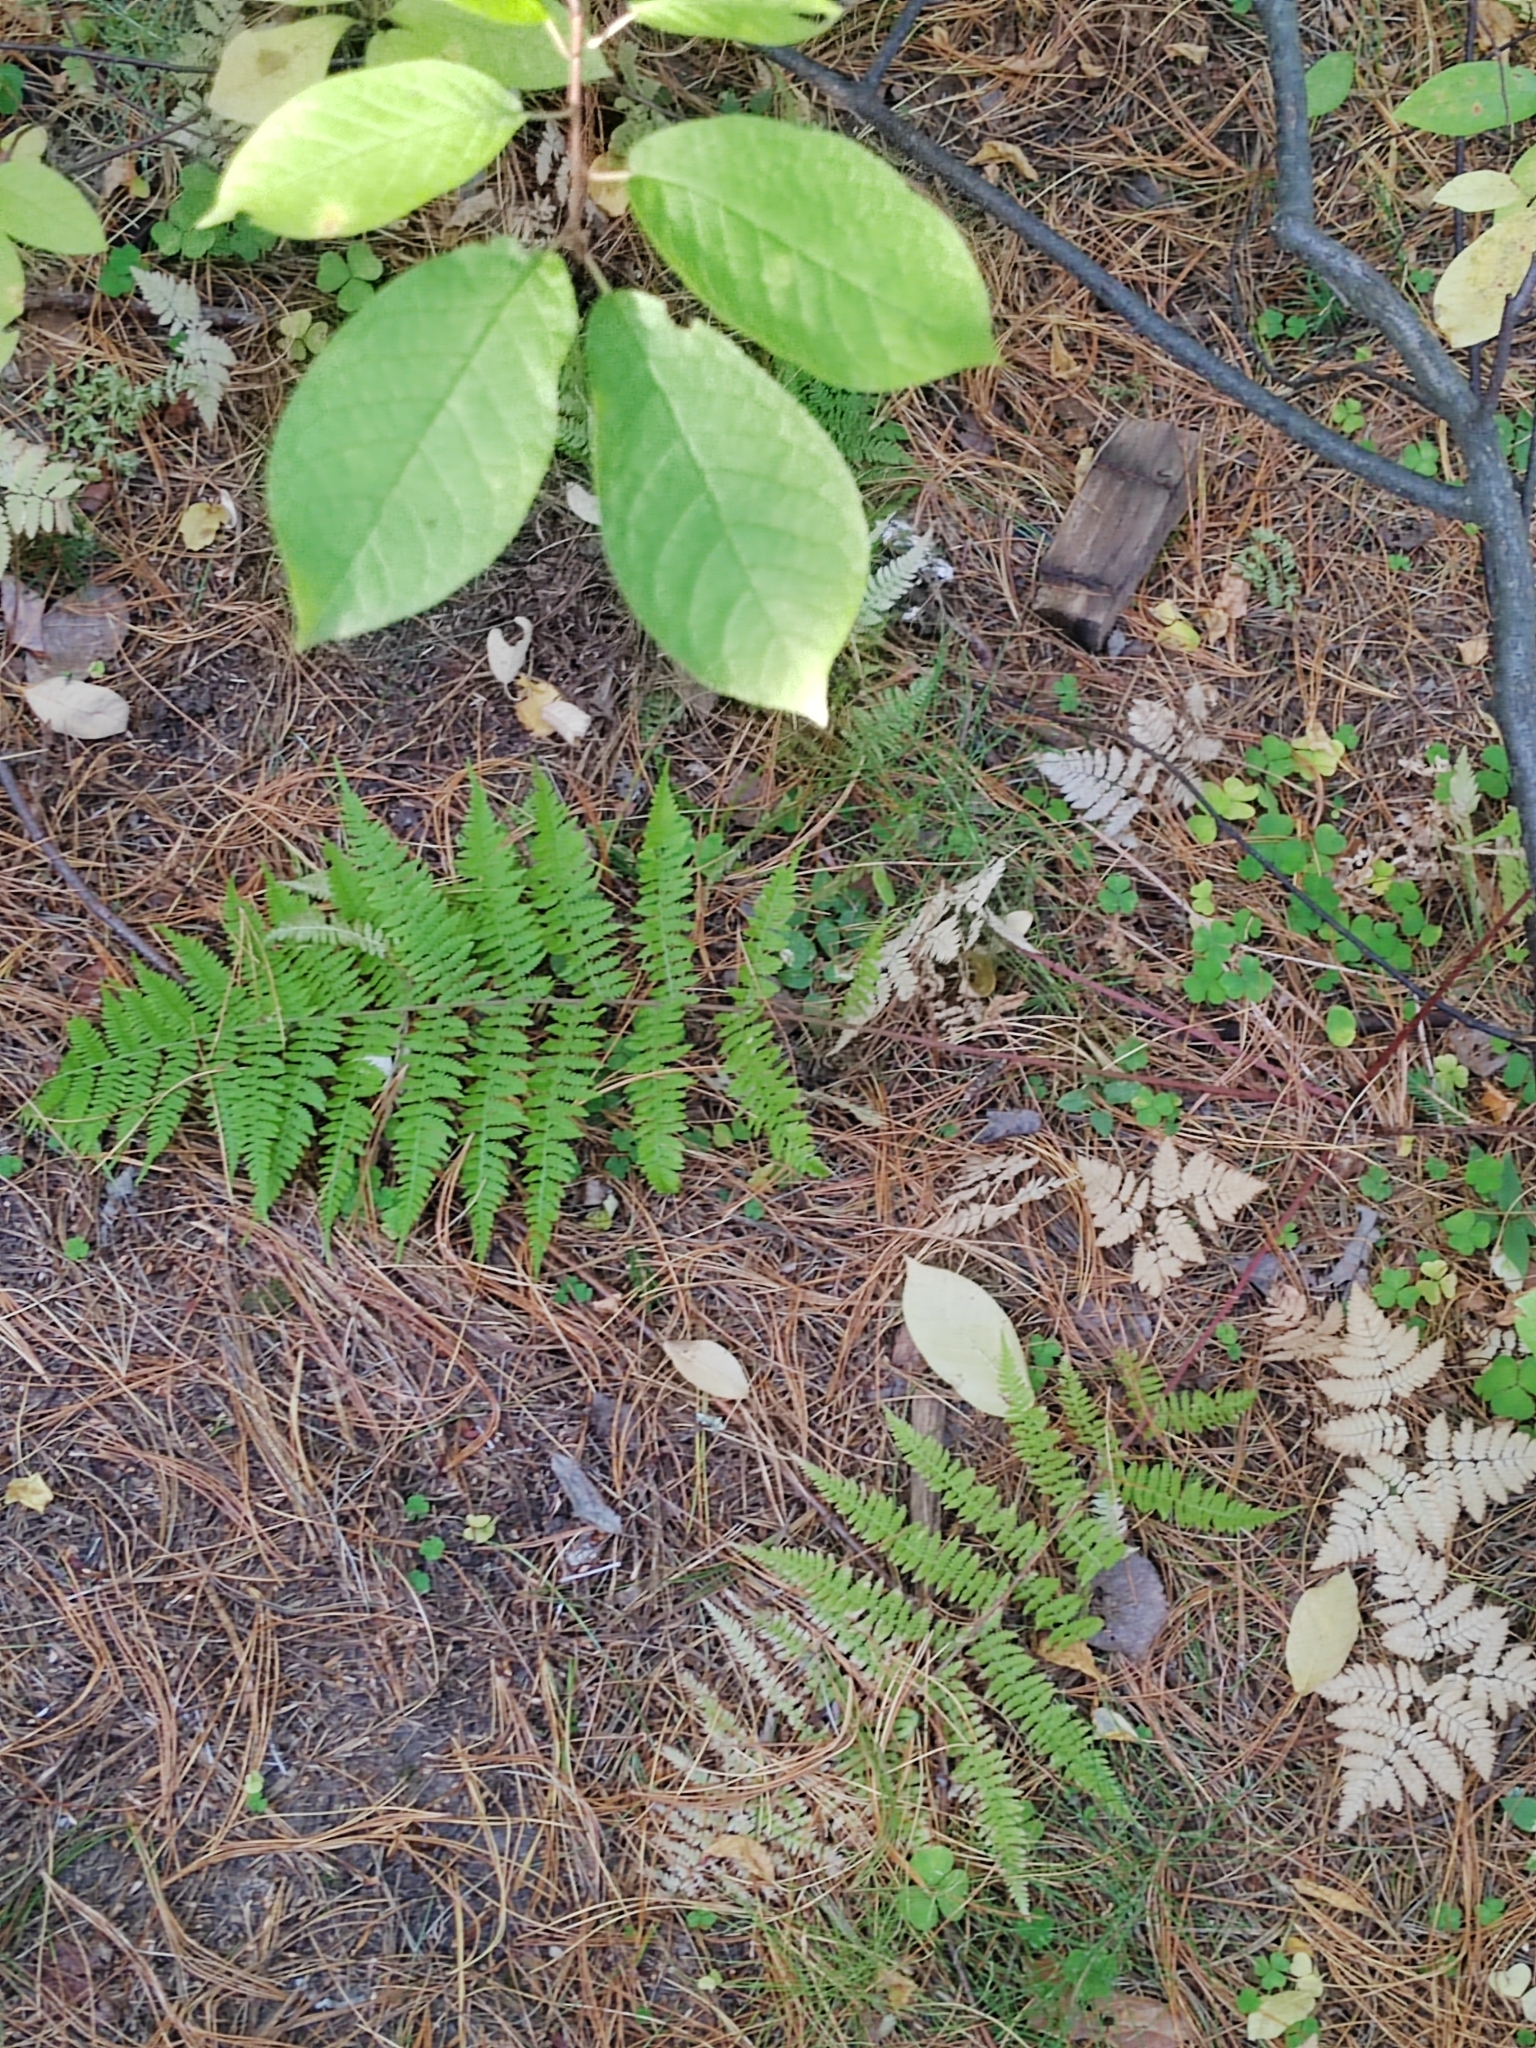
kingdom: Plantae
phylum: Tracheophyta
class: Polypodiopsida
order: Polypodiales
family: Athyriaceae
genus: Athyrium
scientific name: Athyrium filix-femina
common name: Lady fern
